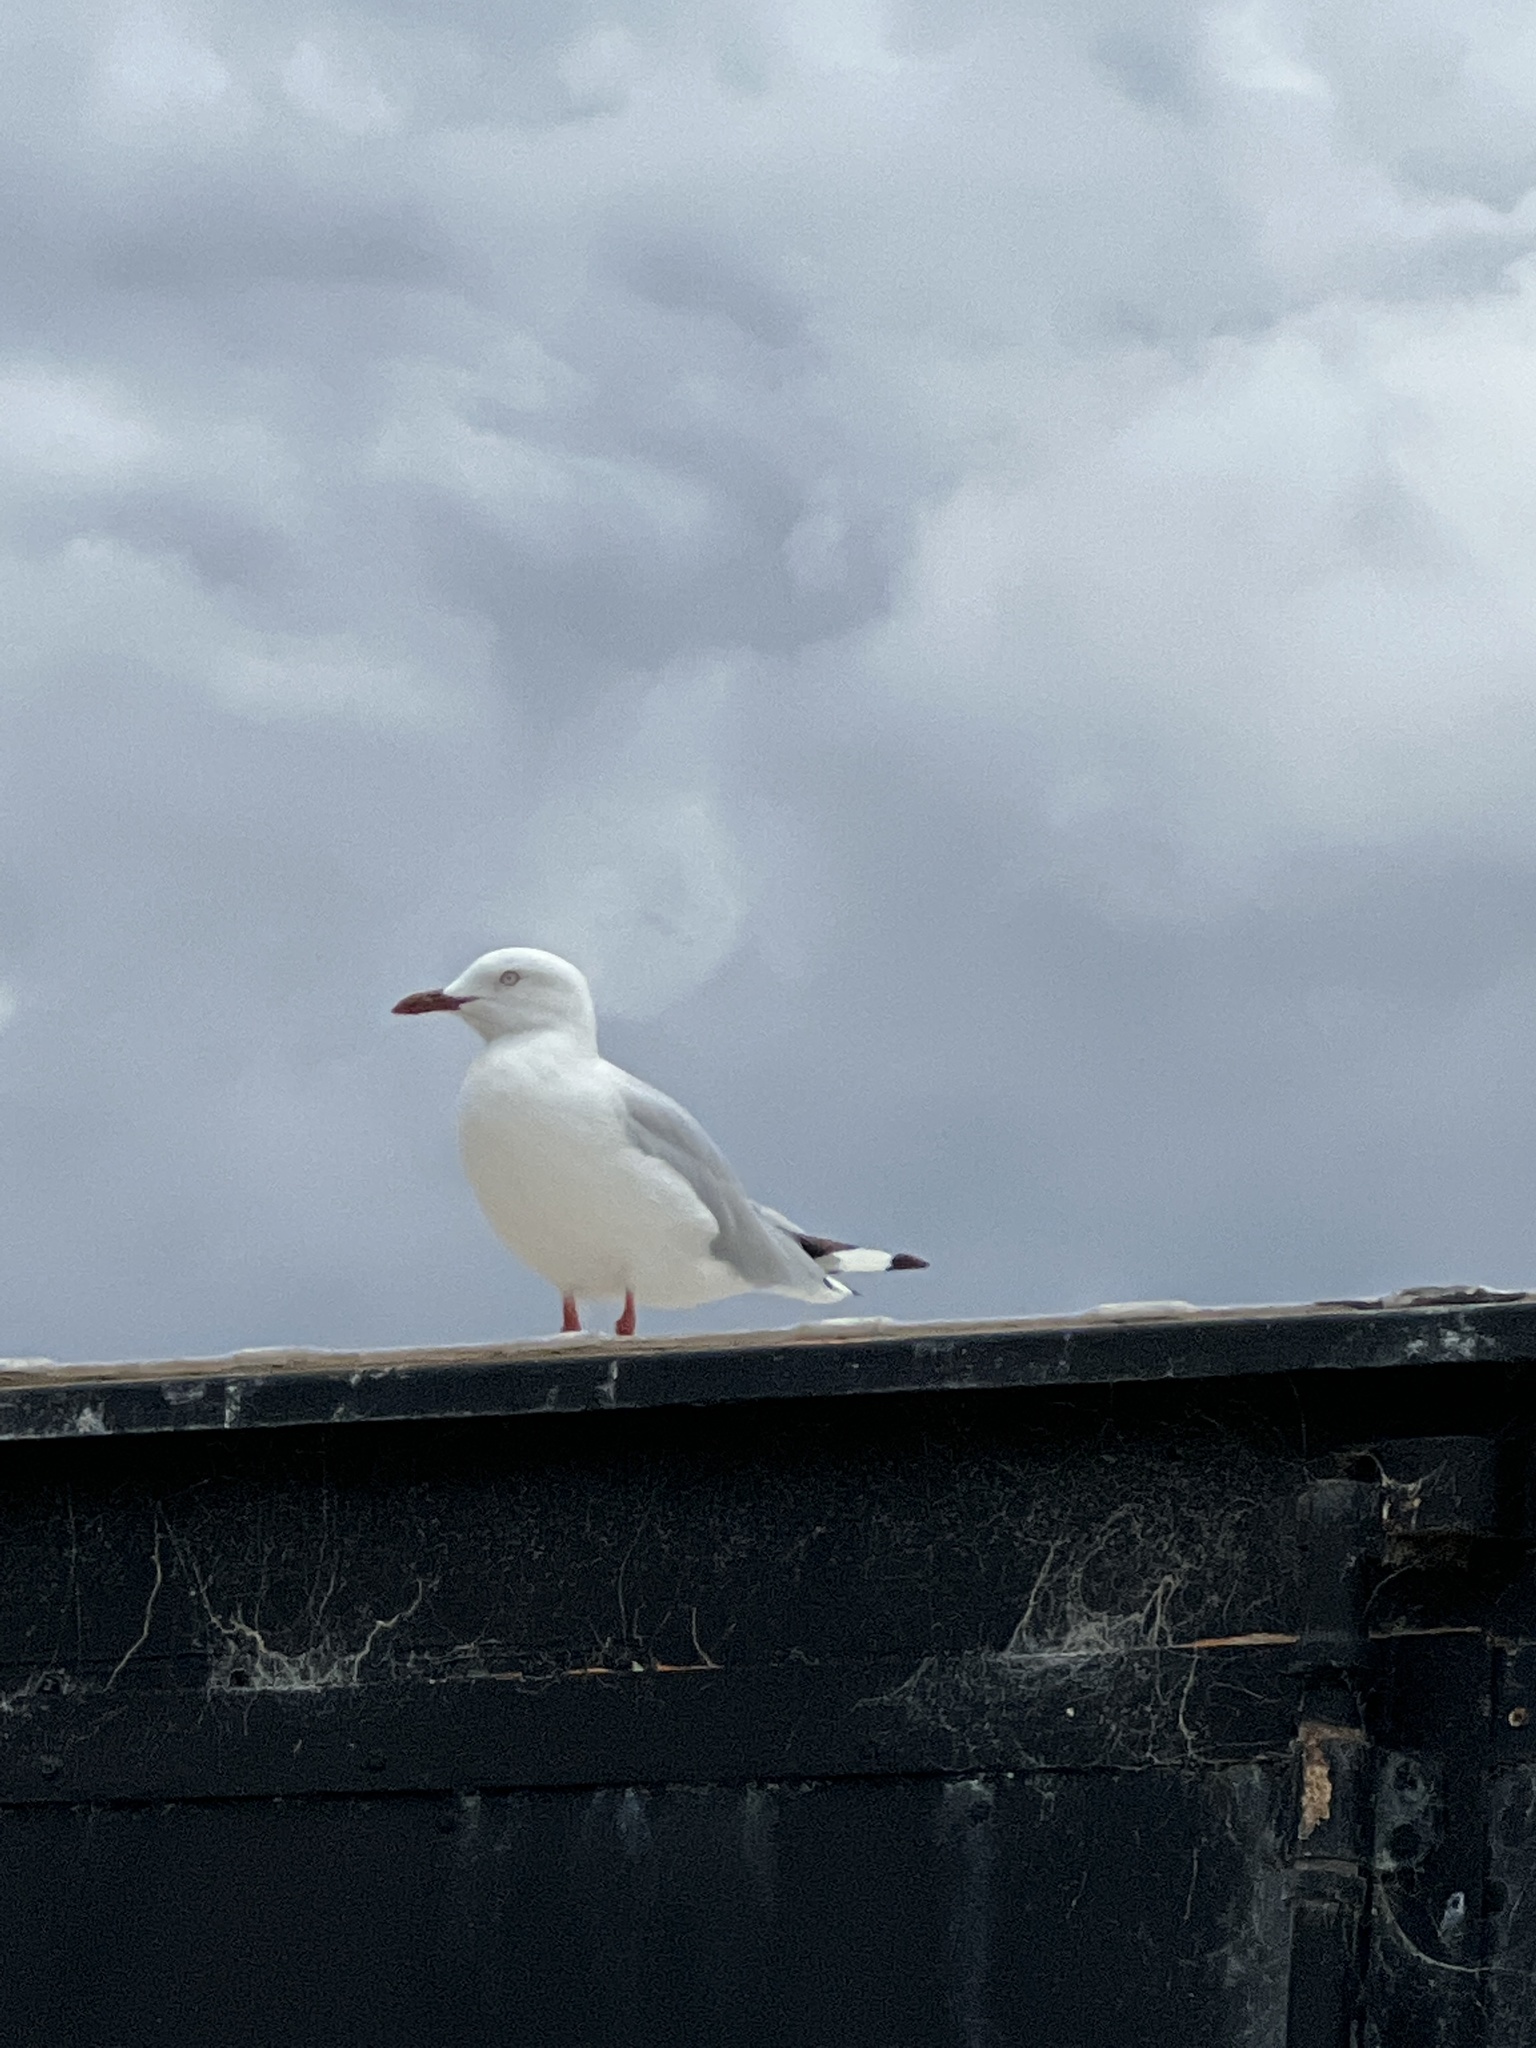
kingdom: Animalia
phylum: Chordata
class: Aves
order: Charadriiformes
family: Laridae
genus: Chroicocephalus
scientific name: Chroicocephalus novaehollandiae
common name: Silver gull
